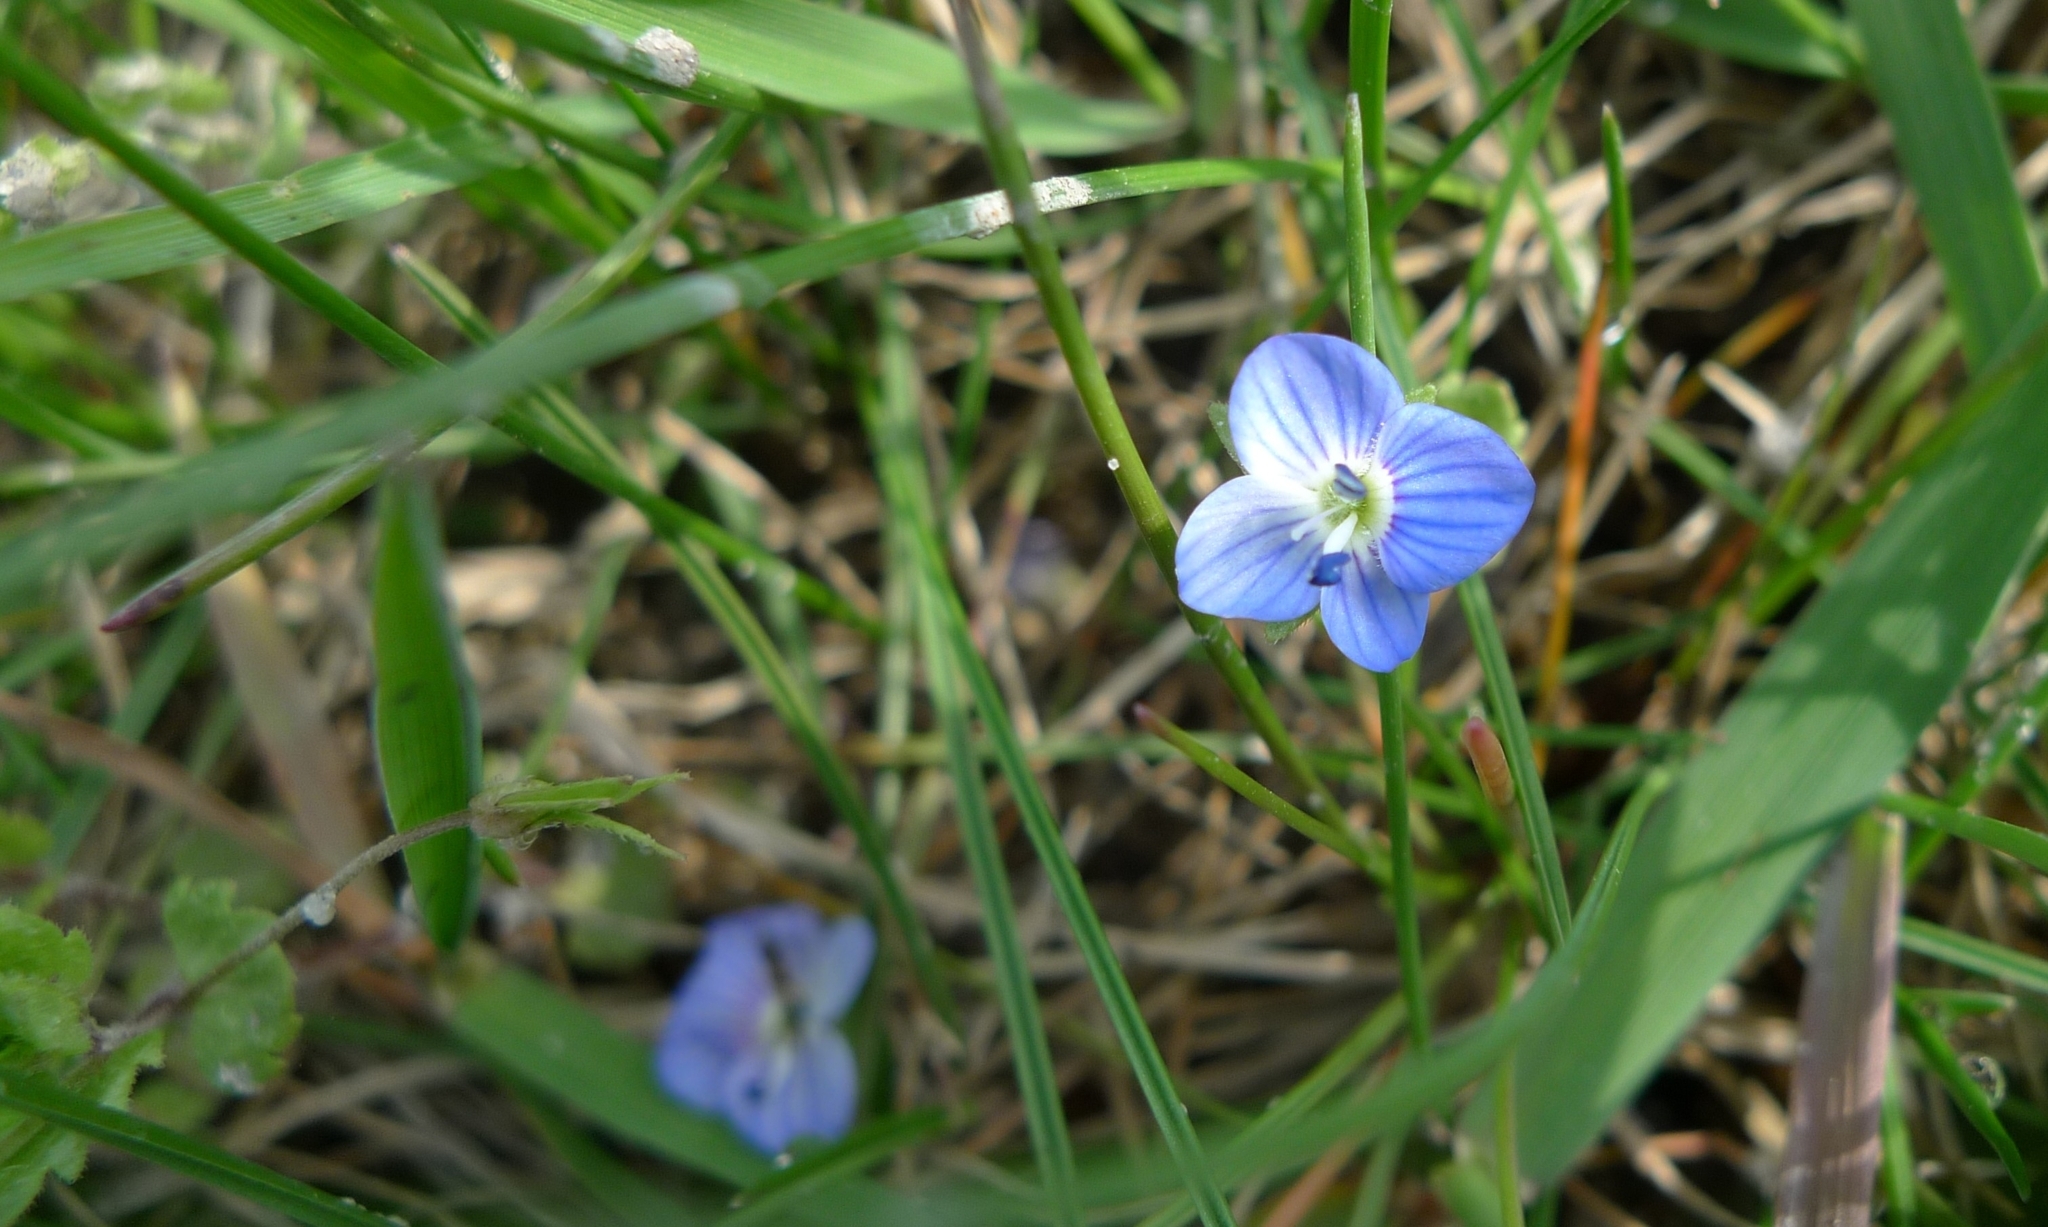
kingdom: Plantae
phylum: Tracheophyta
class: Magnoliopsida
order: Lamiales
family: Plantaginaceae
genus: Veronica
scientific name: Veronica persica
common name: Common field-speedwell
